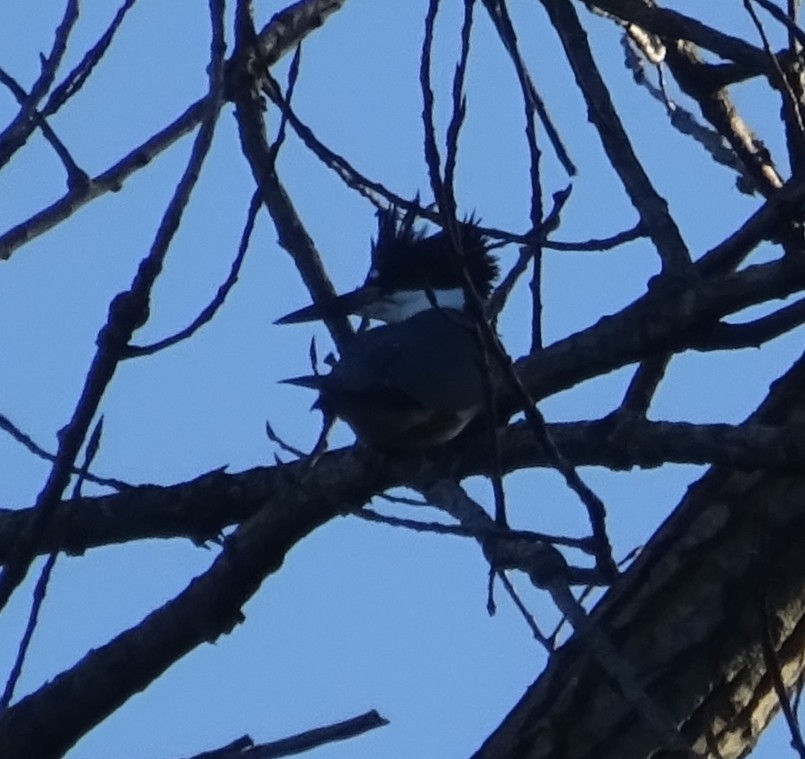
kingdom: Animalia
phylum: Chordata
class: Aves
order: Coraciiformes
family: Alcedinidae
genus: Megaceryle
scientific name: Megaceryle alcyon
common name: Belted kingfisher
